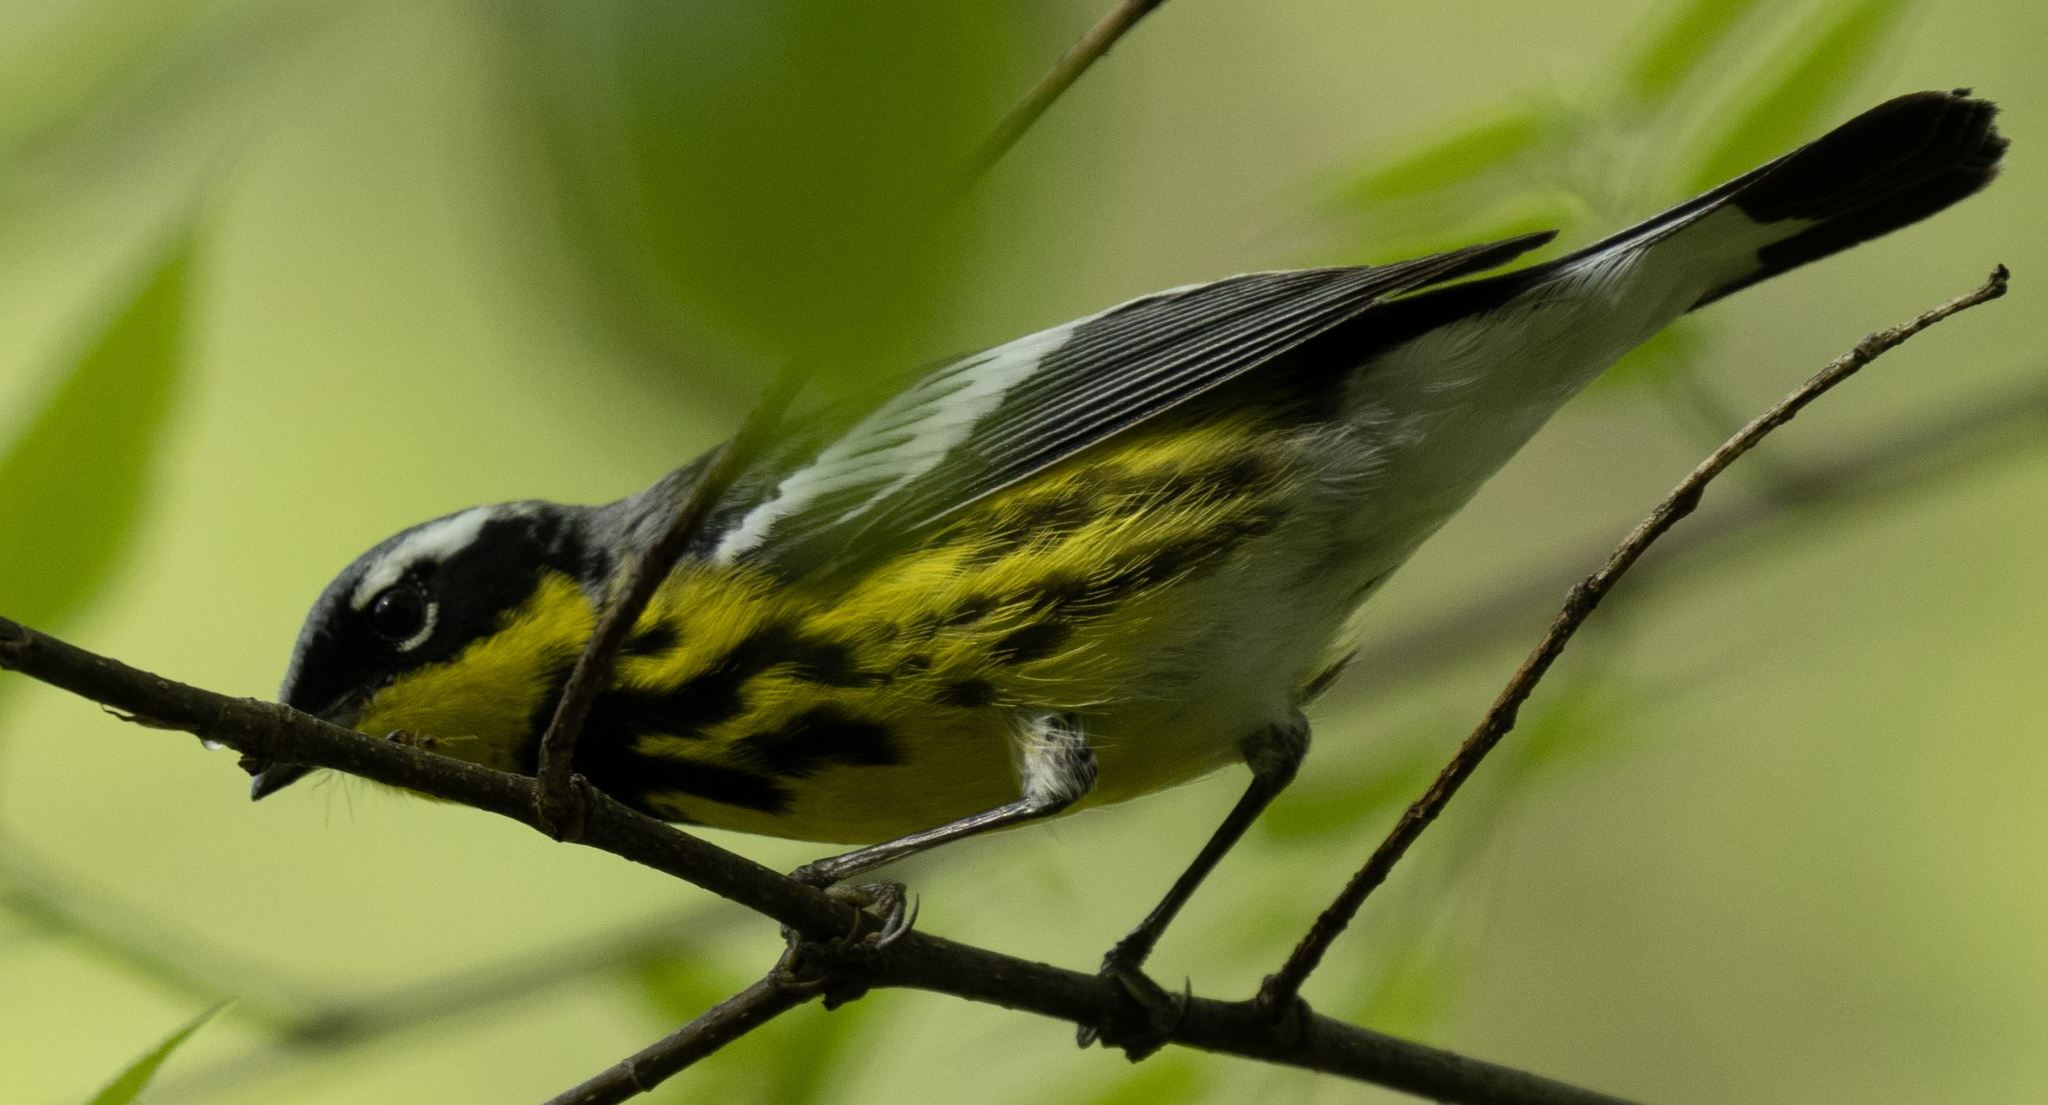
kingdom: Animalia
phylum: Chordata
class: Aves
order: Passeriformes
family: Parulidae
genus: Setophaga
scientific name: Setophaga magnolia
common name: Magnolia warbler
